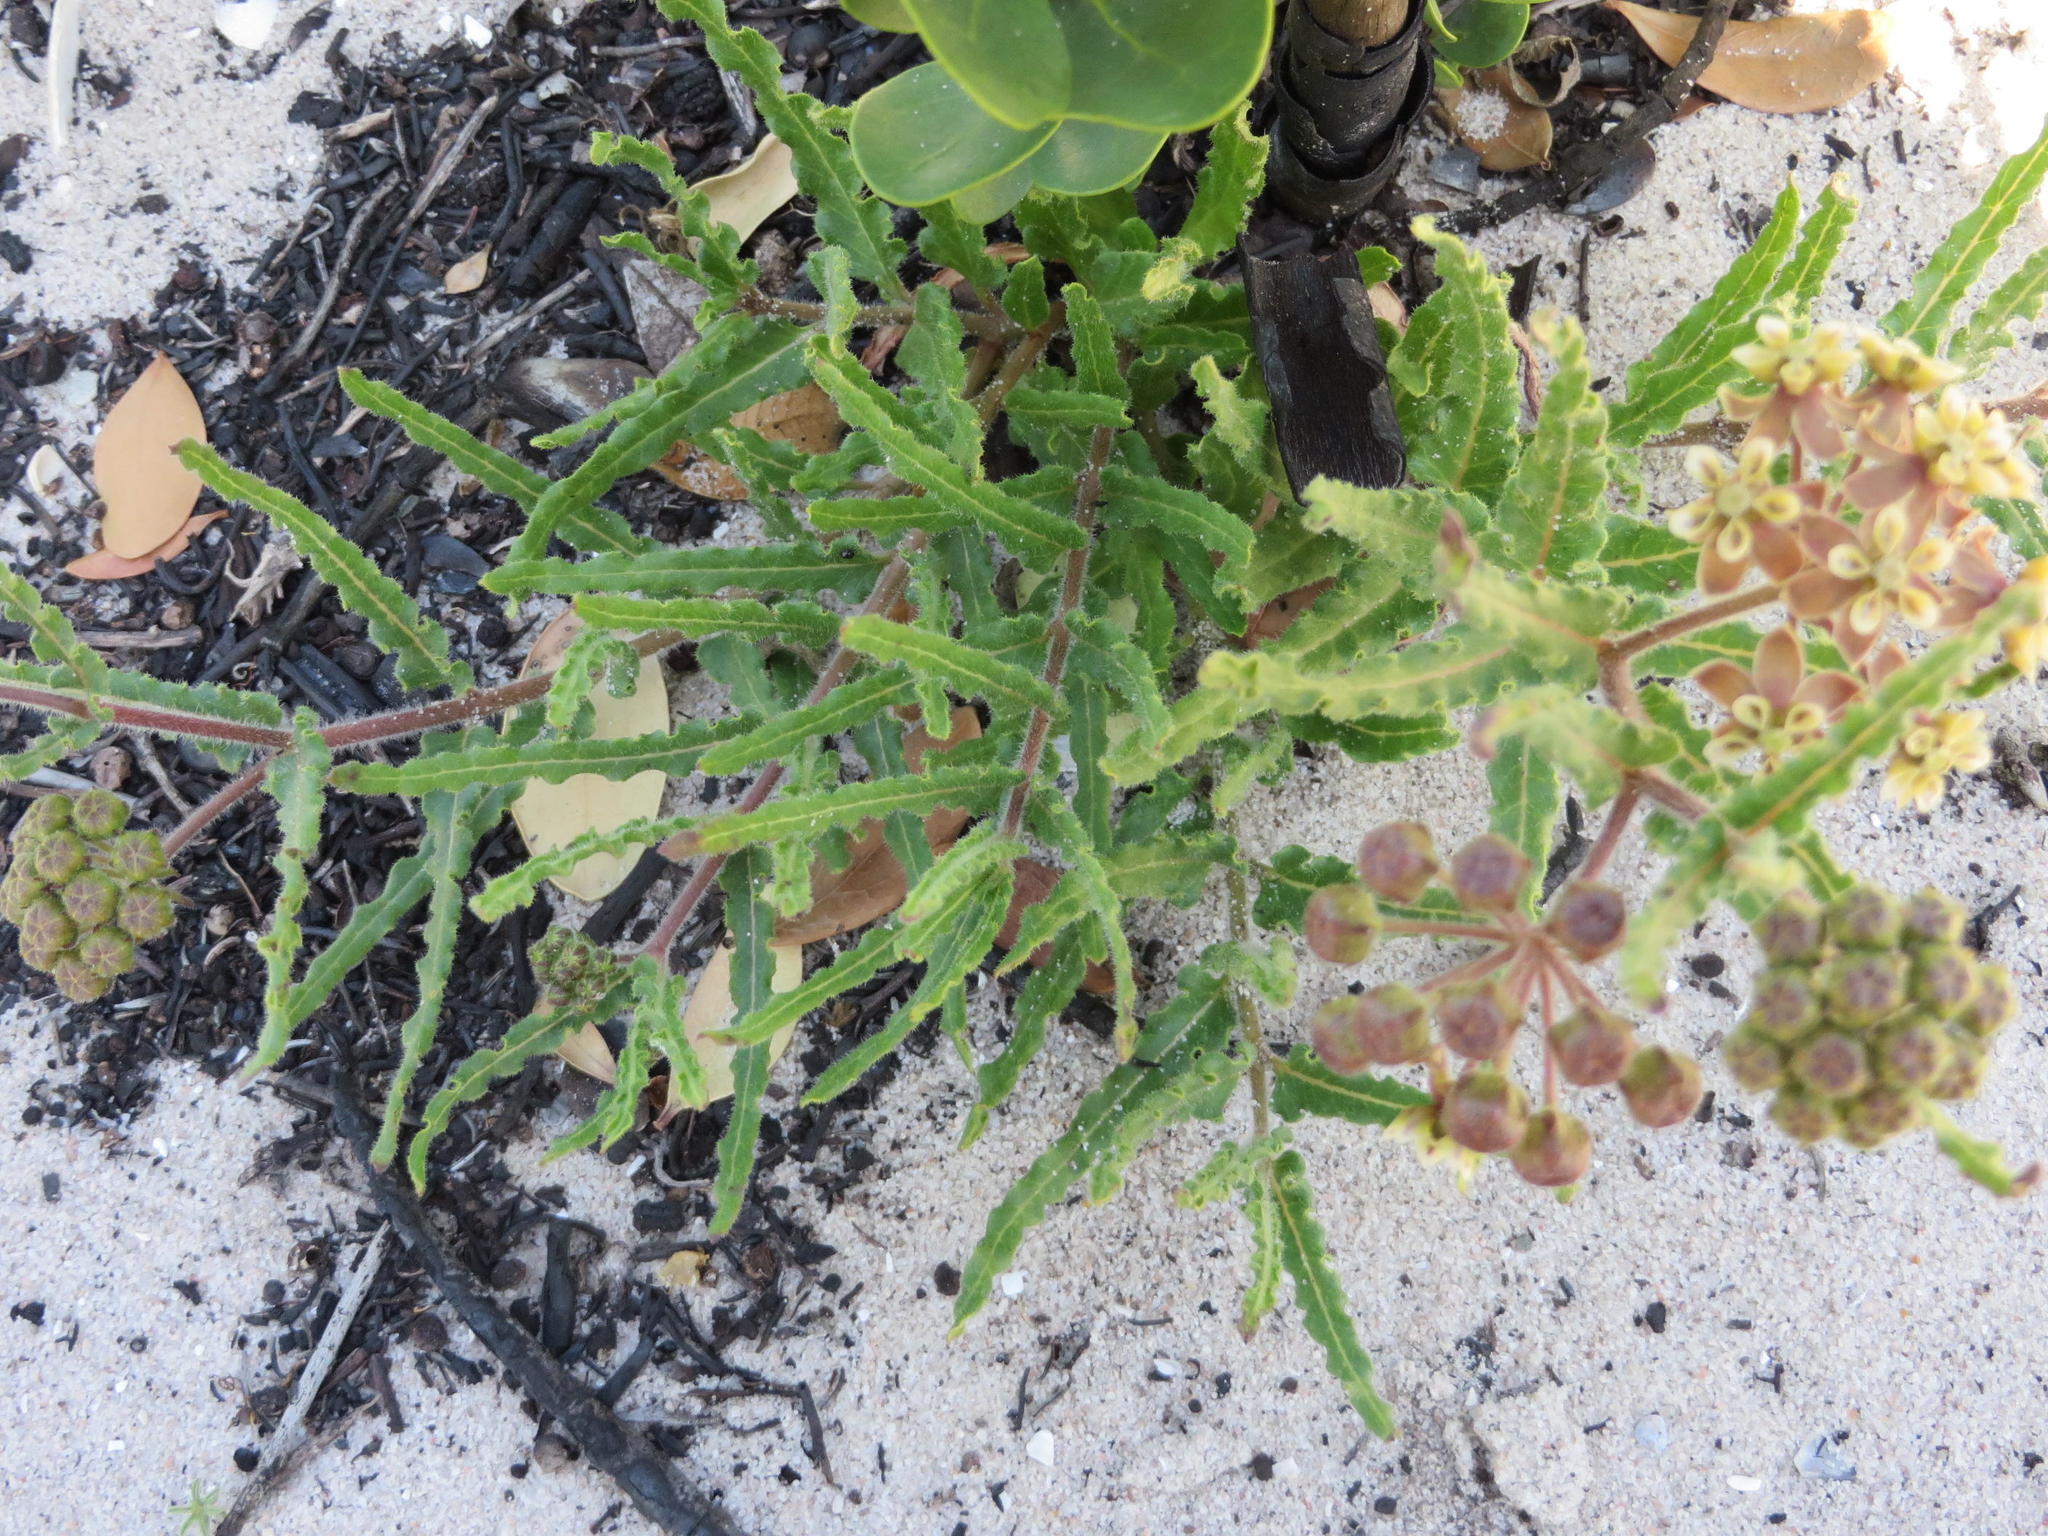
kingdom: Plantae
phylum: Tracheophyta
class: Magnoliopsida
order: Gentianales
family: Apocynaceae
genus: Asclepias
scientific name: Asclepias crispa
